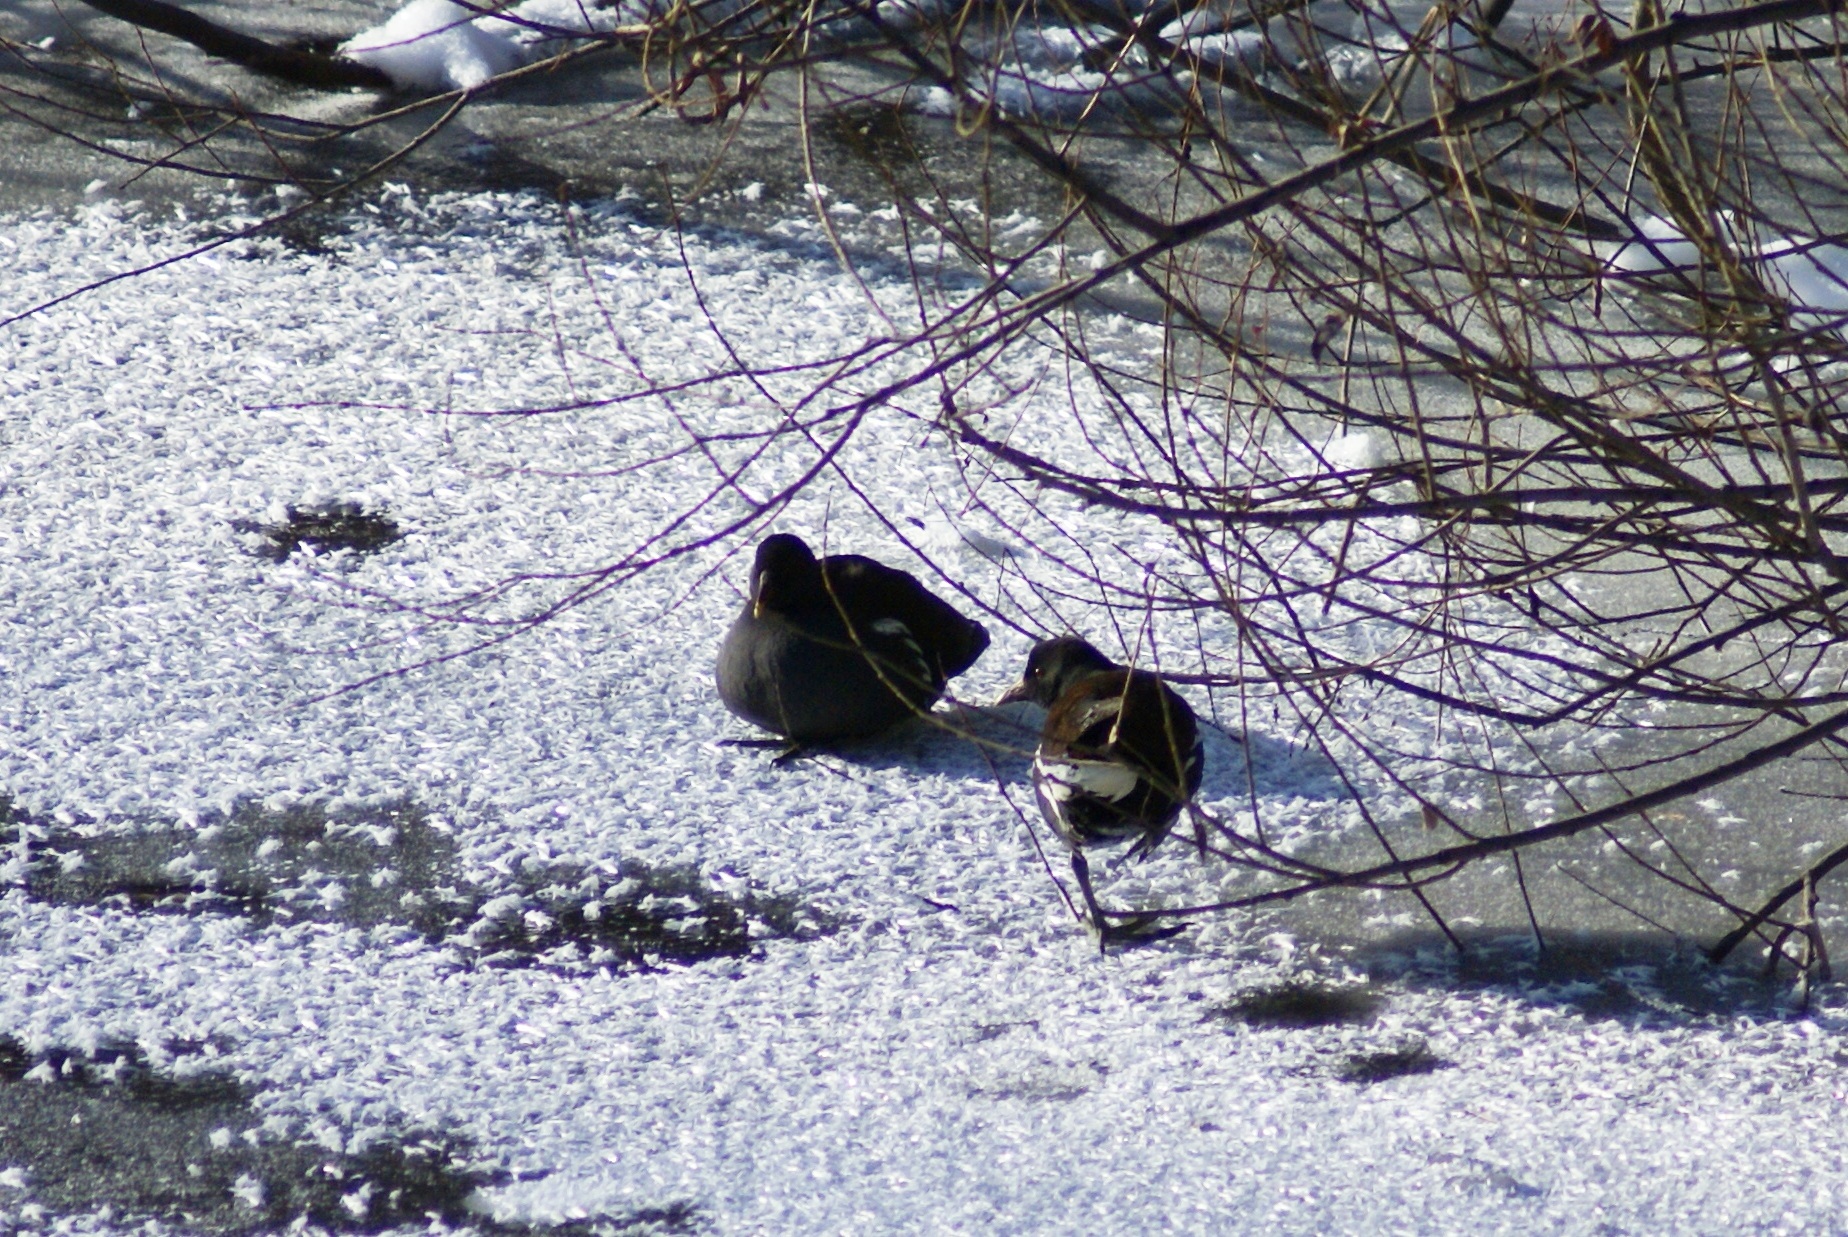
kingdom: Animalia
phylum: Chordata
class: Aves
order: Gruiformes
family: Rallidae
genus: Gallinula
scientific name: Gallinula chloropus
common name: Common moorhen
